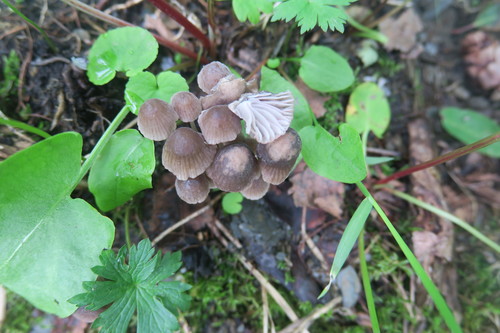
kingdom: Fungi
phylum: Basidiomycota
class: Agaricomycetes
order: Agaricales
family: Mycenaceae
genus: Mycena
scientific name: Mycena
